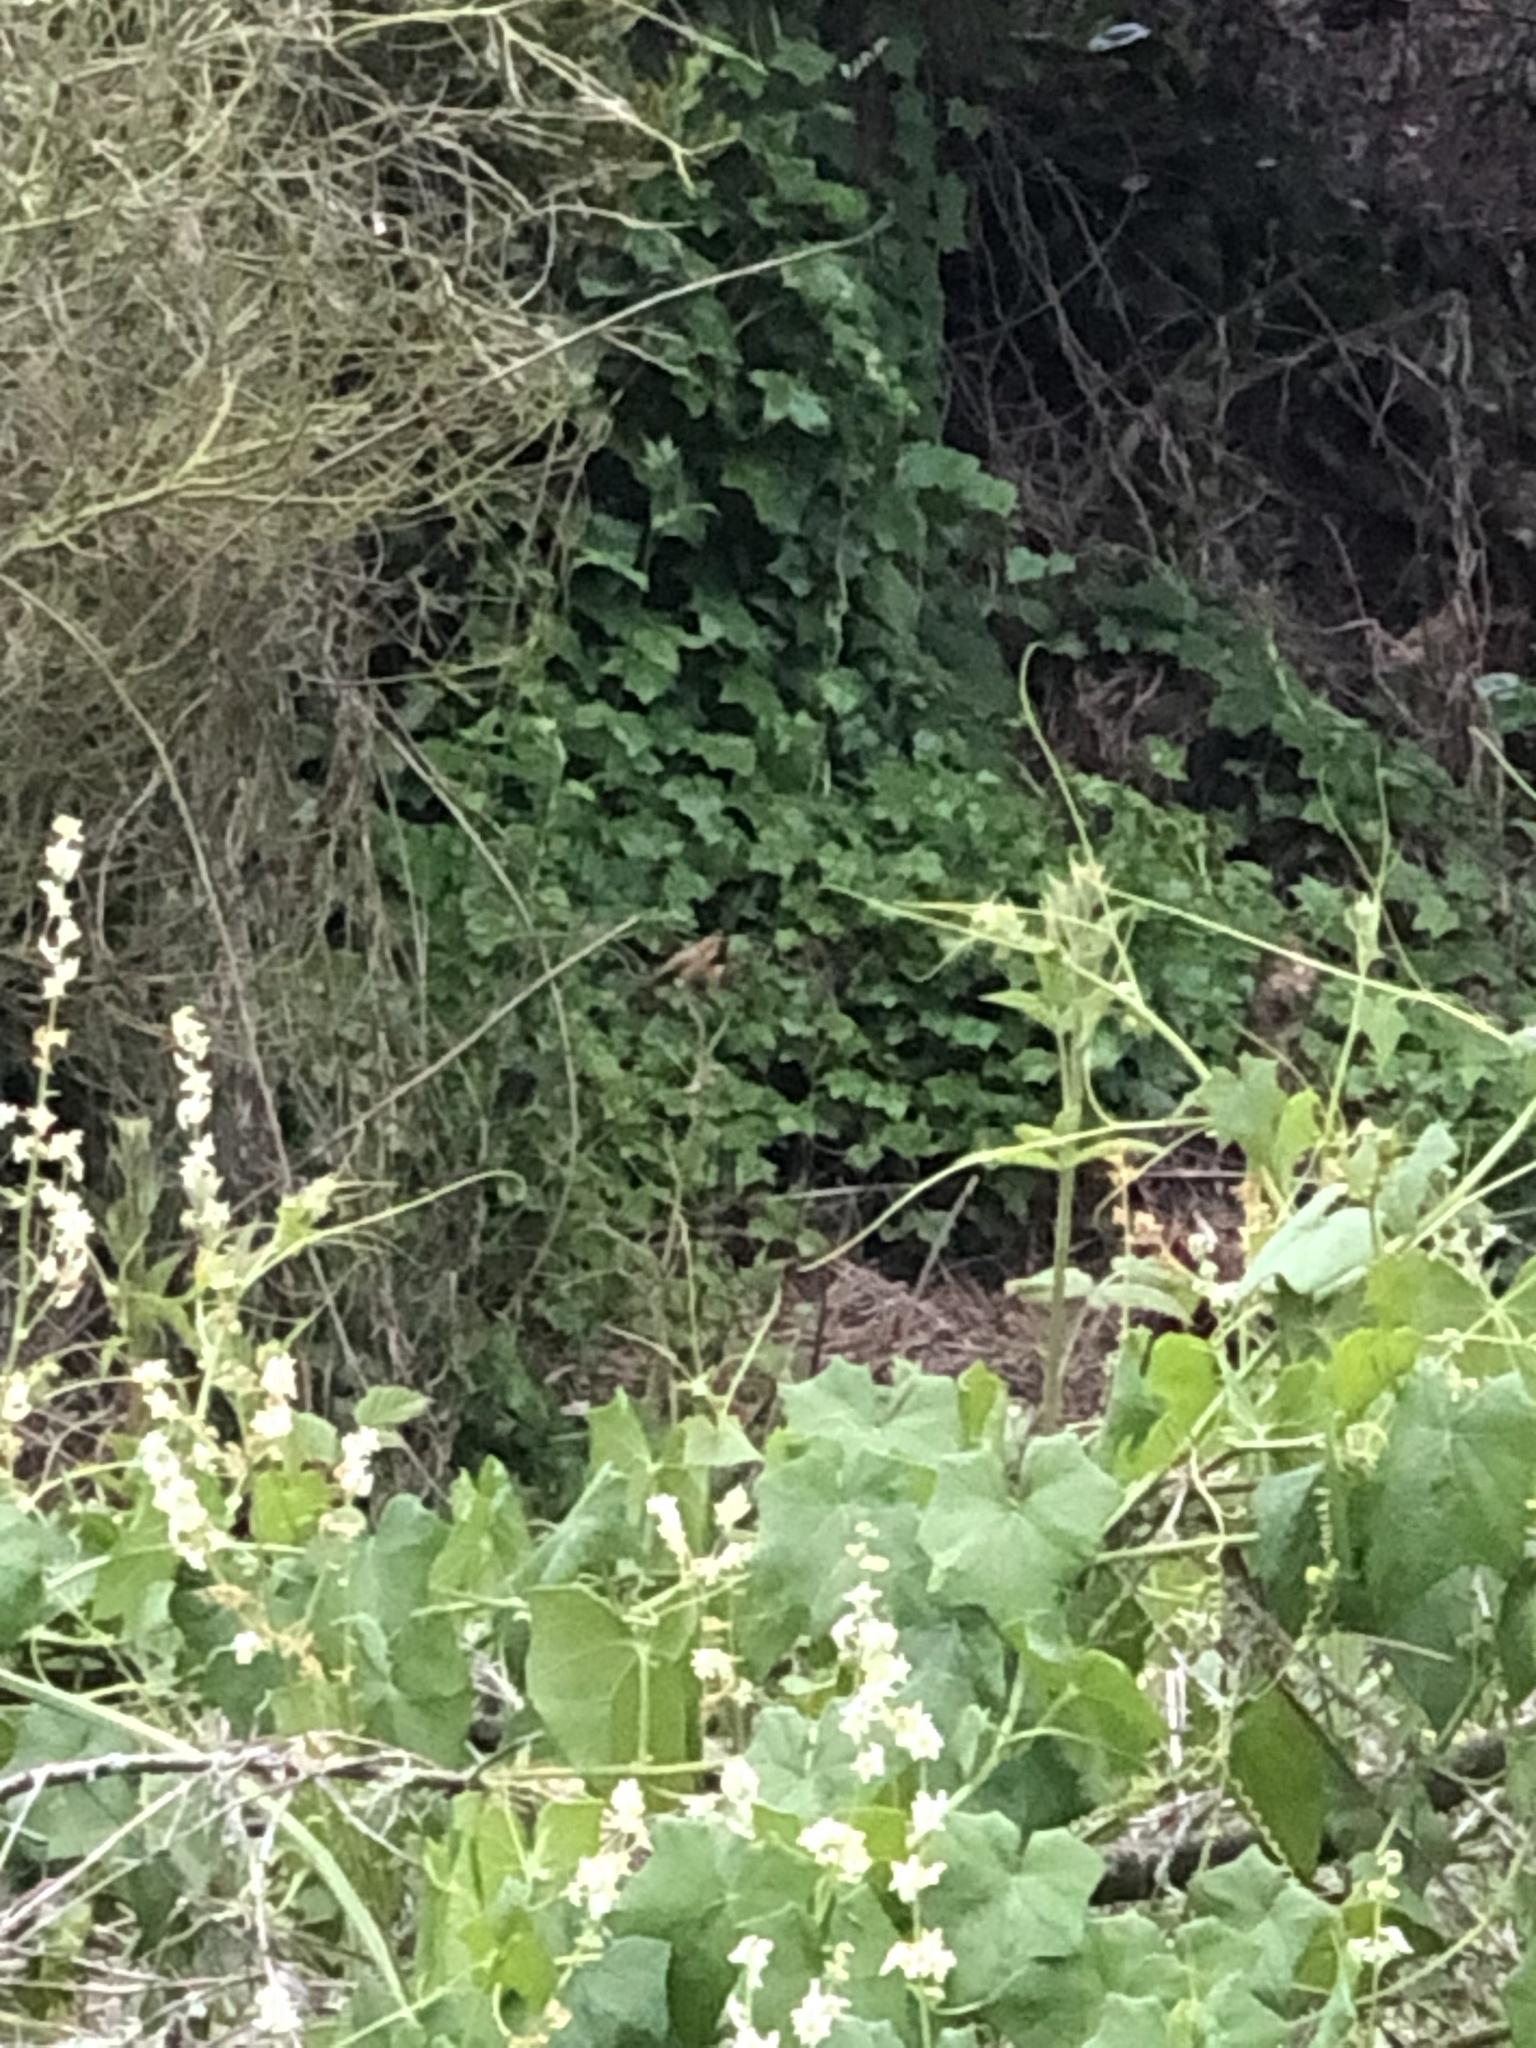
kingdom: Plantae
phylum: Tracheophyta
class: Magnoliopsida
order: Cucurbitales
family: Cucurbitaceae
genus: Marah
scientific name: Marah fabacea
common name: California manroot
